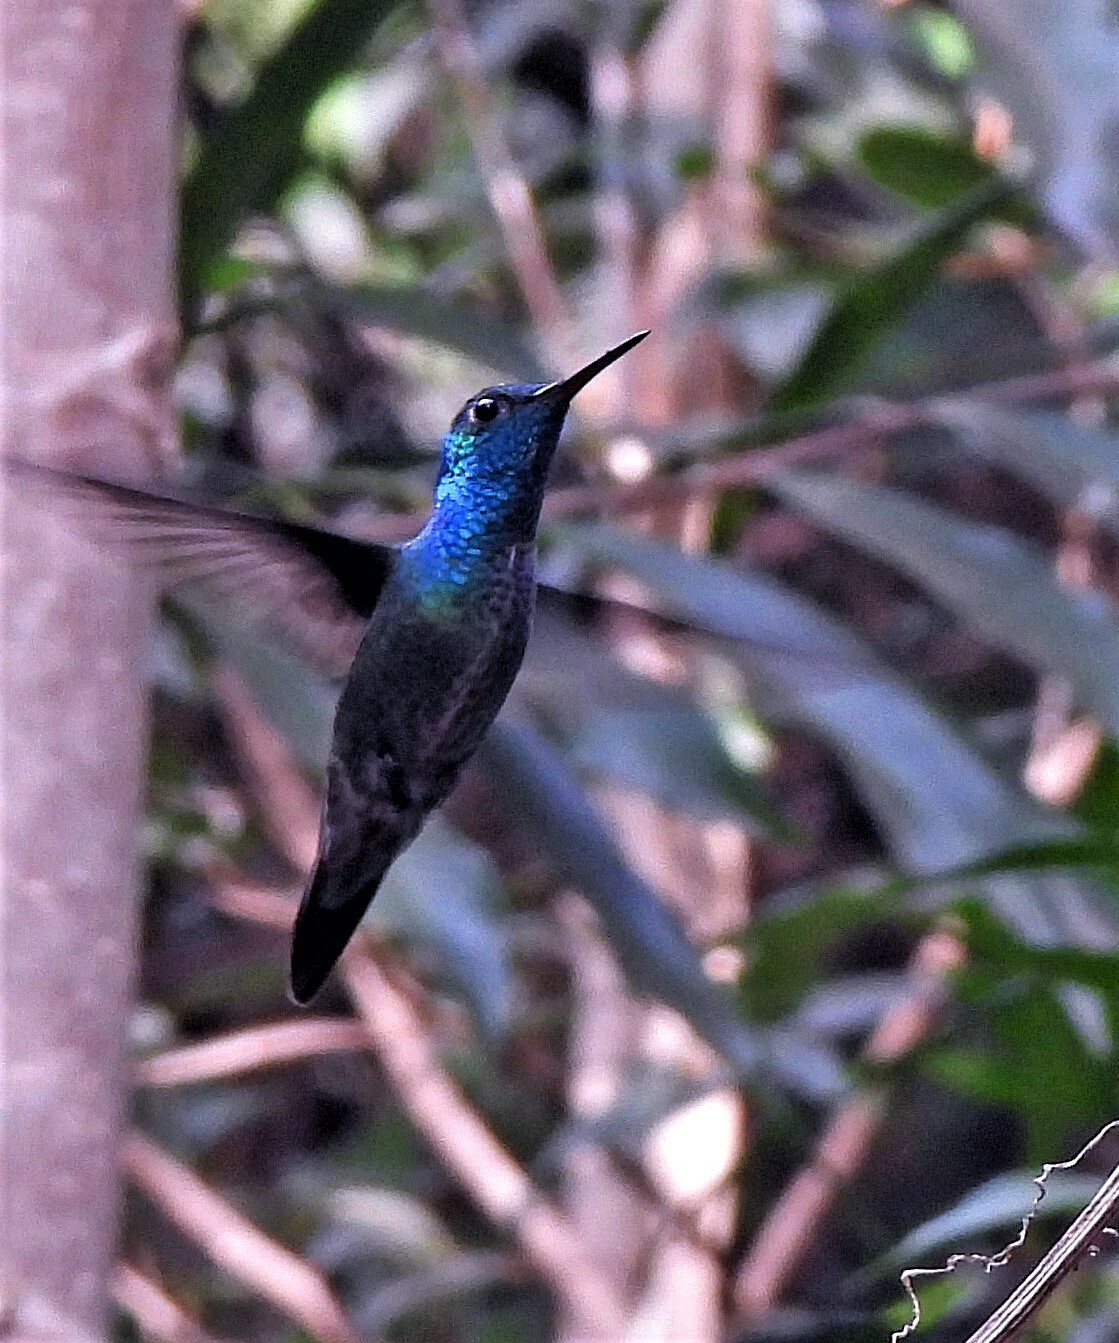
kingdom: Animalia
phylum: Chordata
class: Aves
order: Apodiformes
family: Trochilidae
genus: Chrysuronia
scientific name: Chrysuronia versicolor
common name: Versicolored emerald
